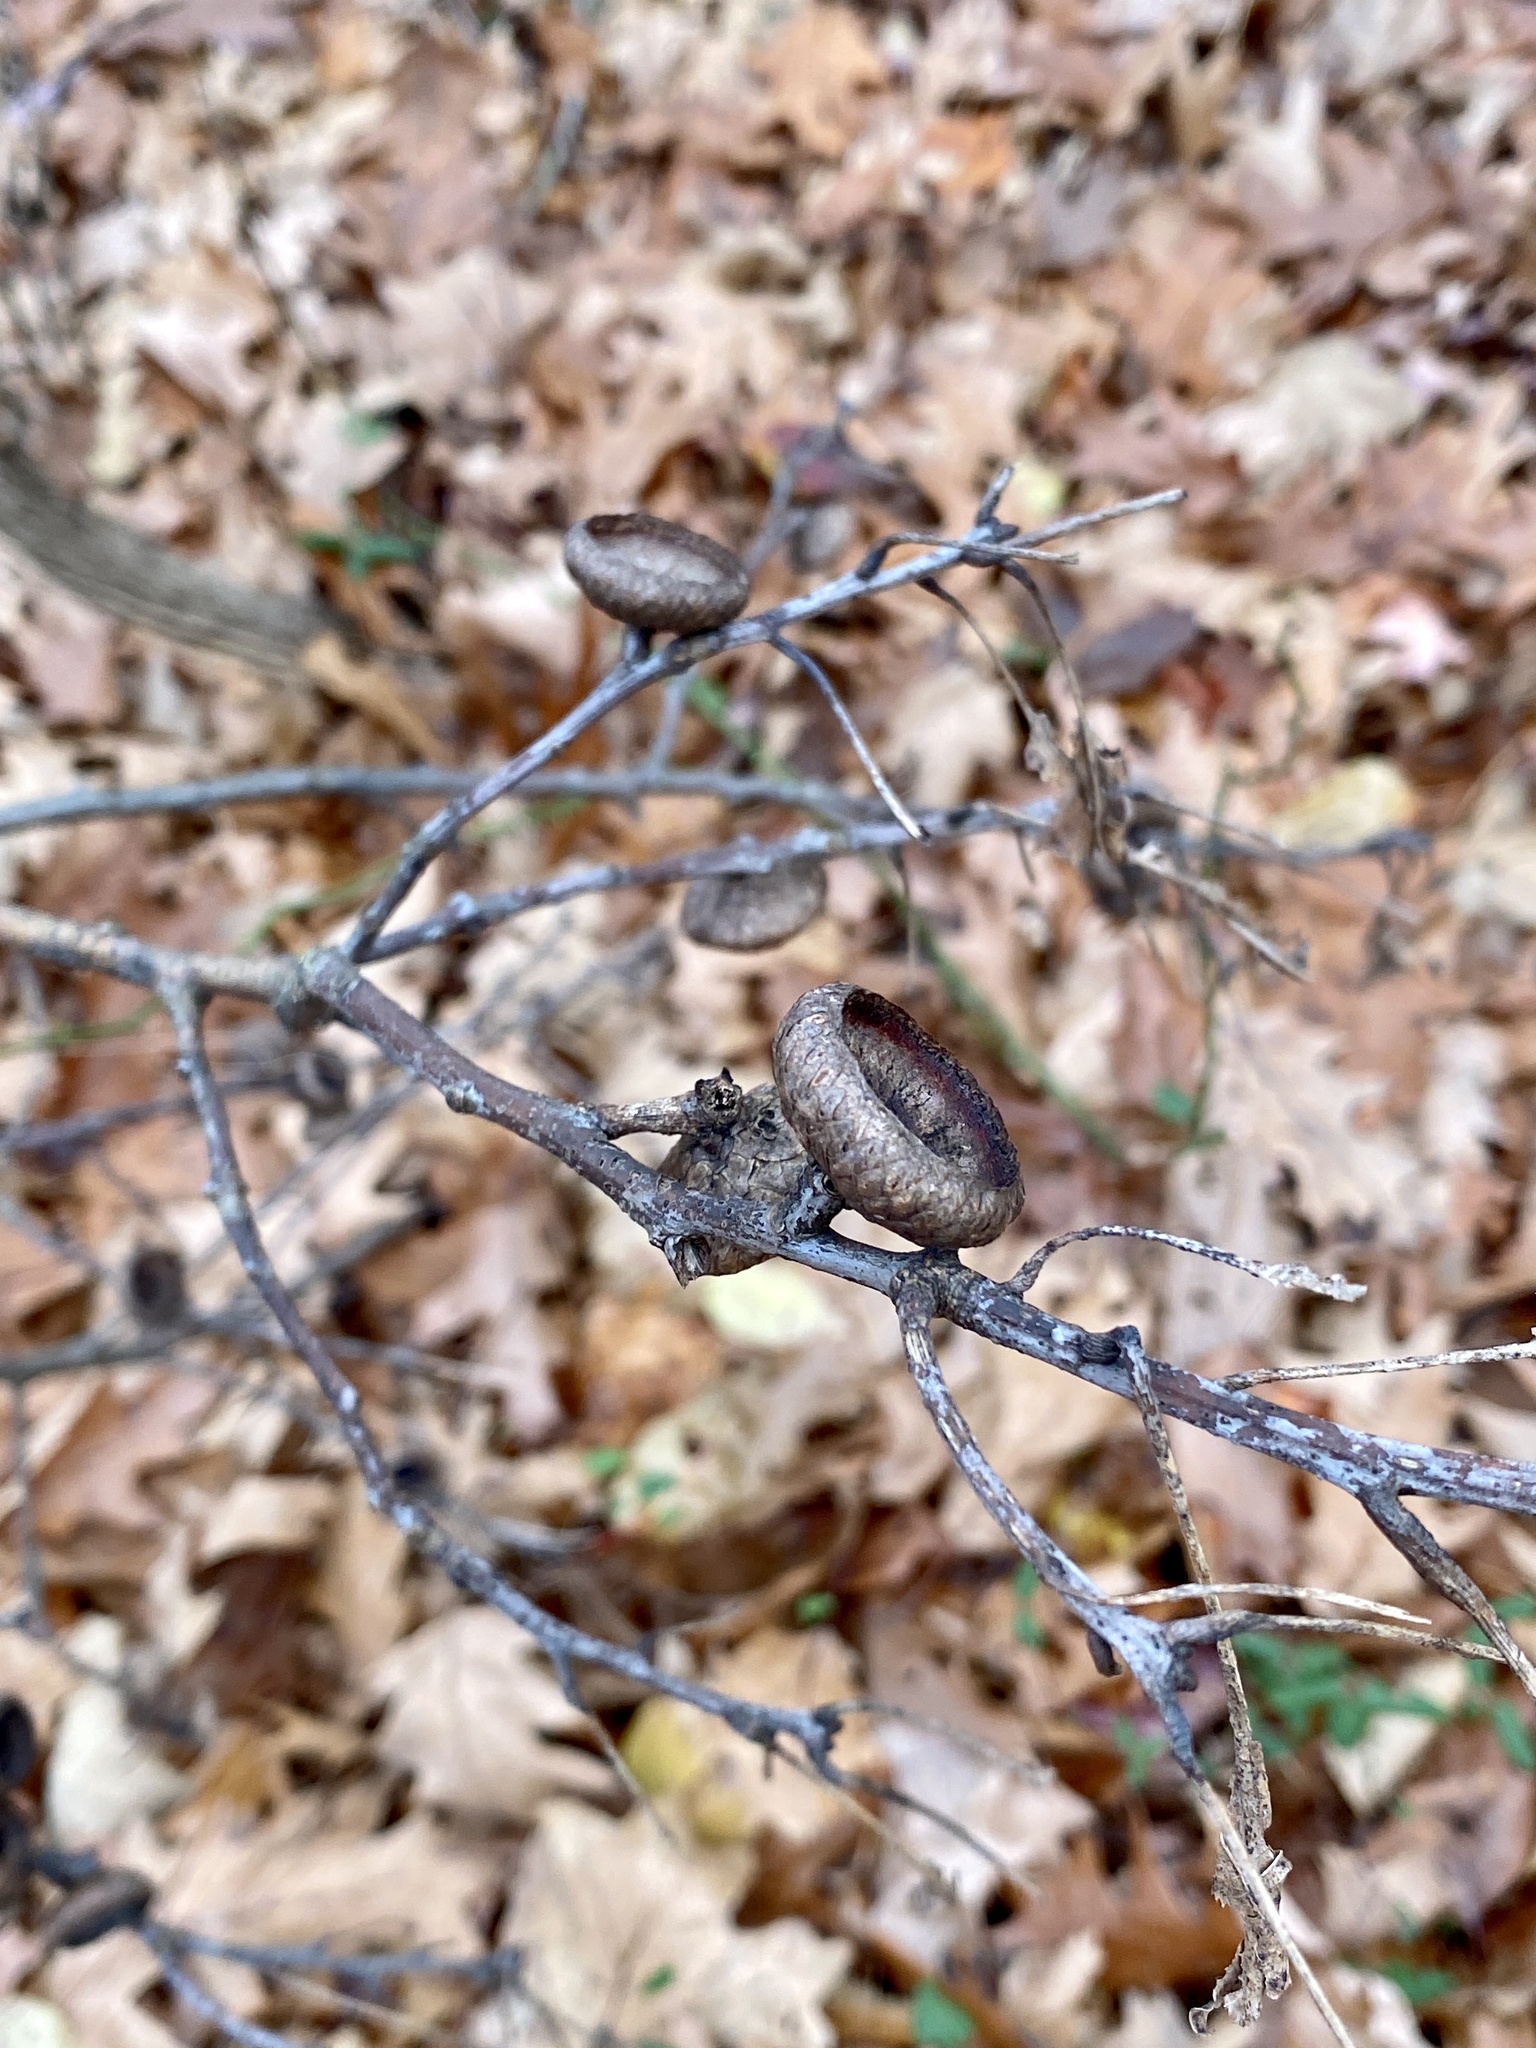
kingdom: Fungi
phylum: Basidiomycota
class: Agaricomycetes
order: Auriculariales
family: Auriculariaceae
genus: Exidia
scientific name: Exidia
